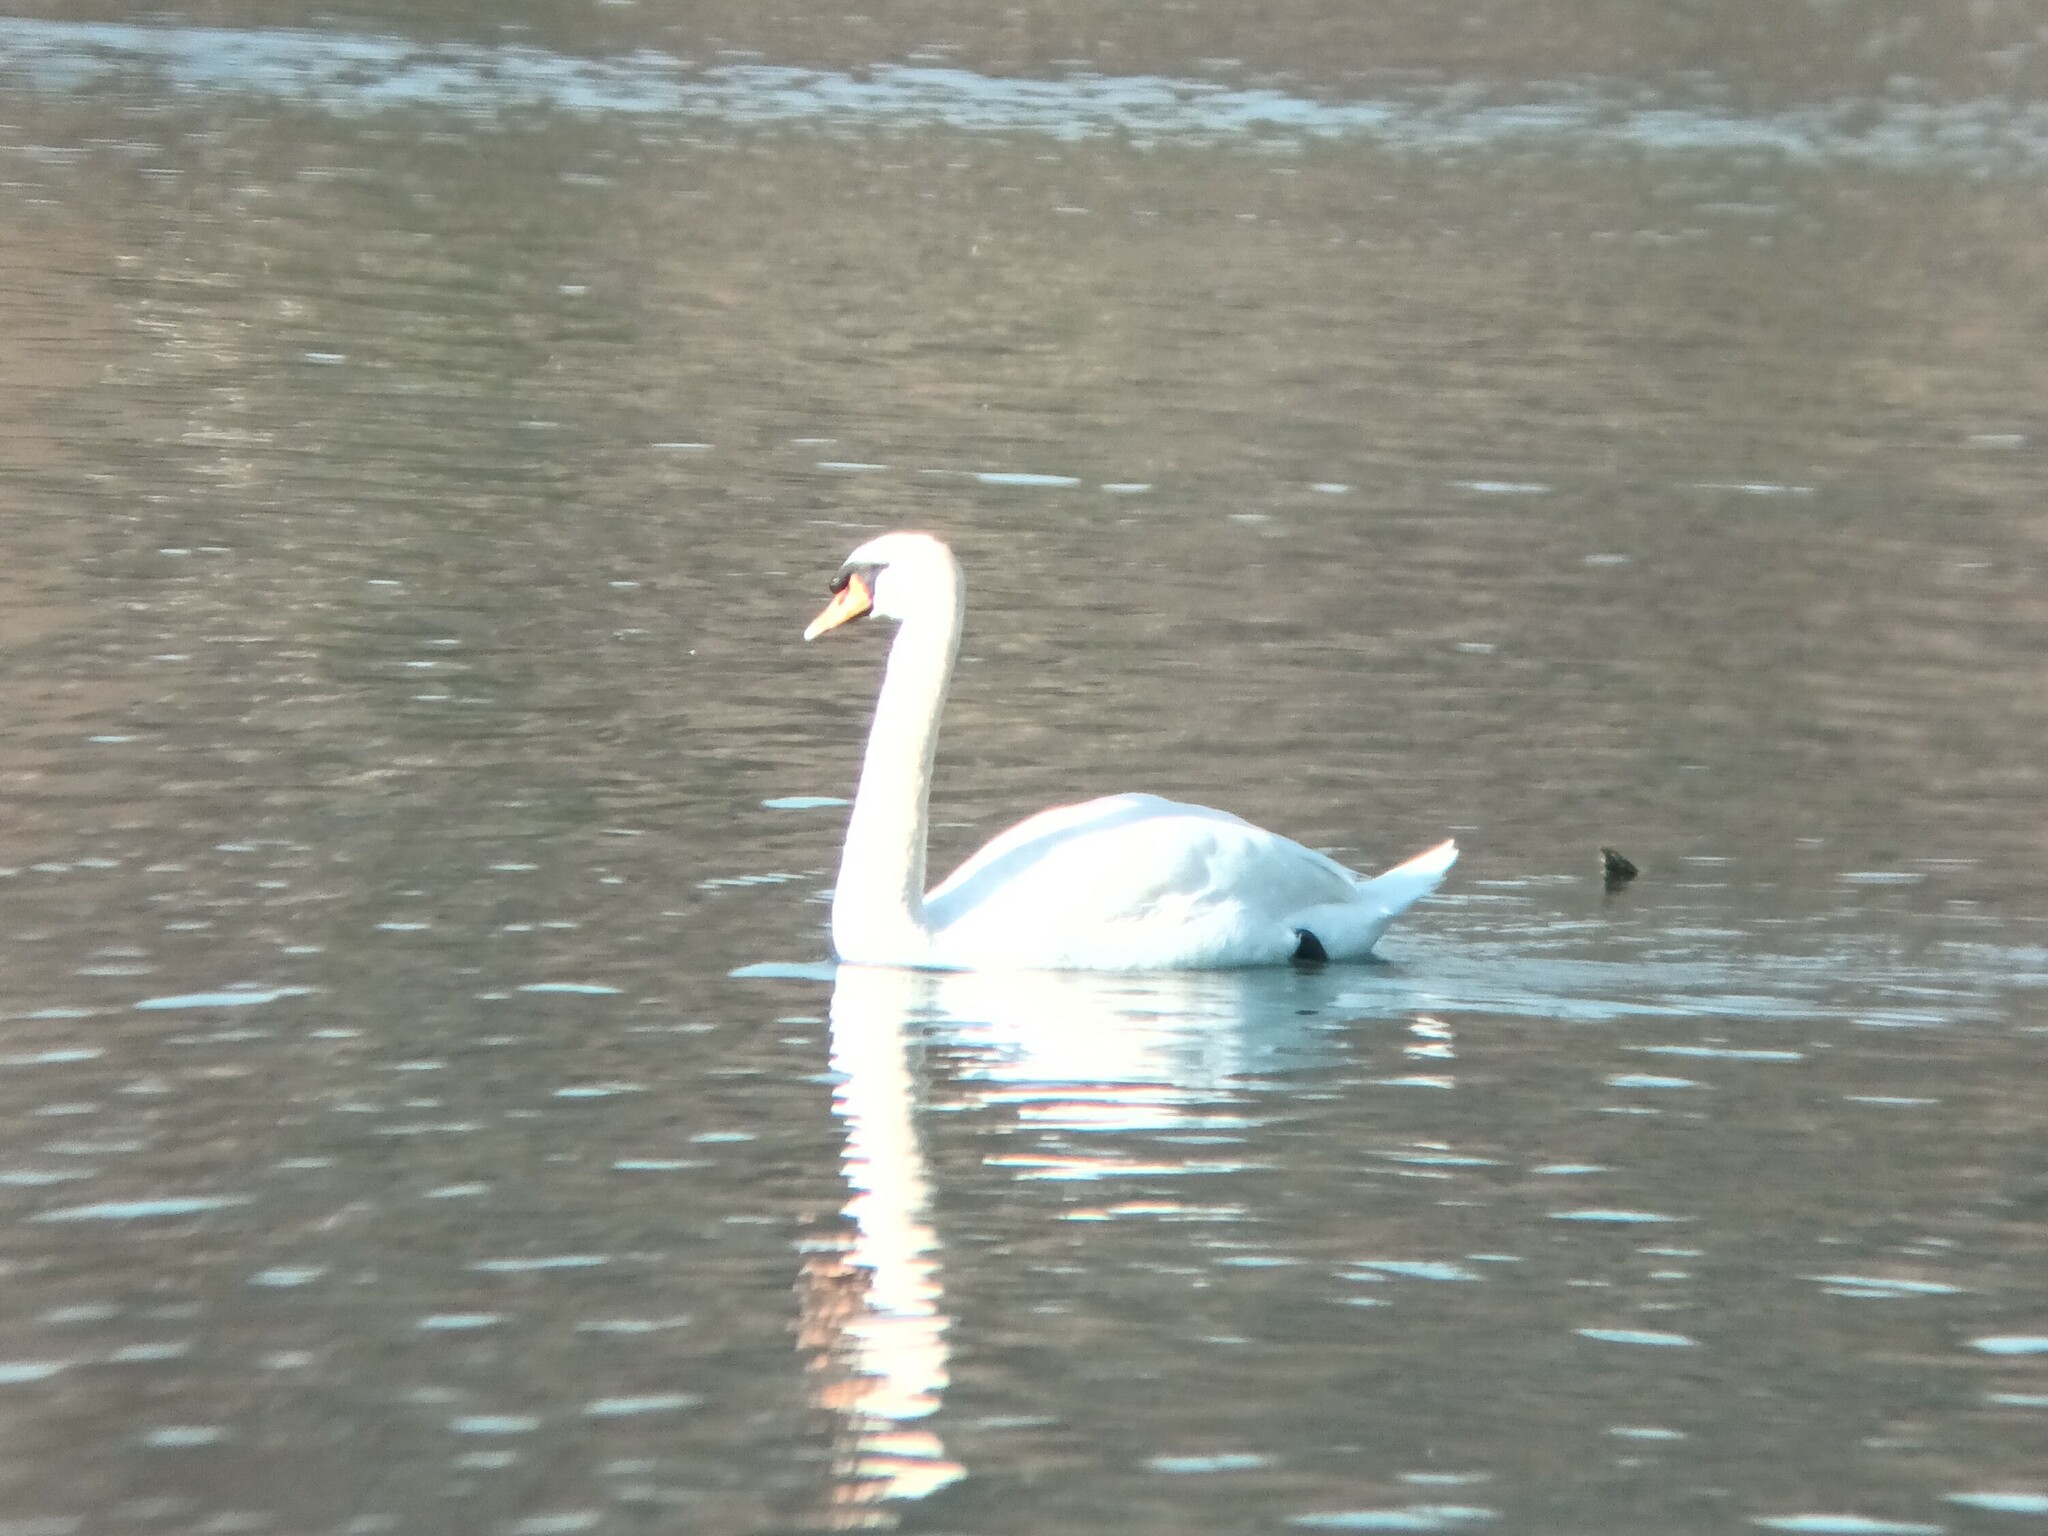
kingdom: Animalia
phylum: Chordata
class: Aves
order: Anseriformes
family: Anatidae
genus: Cygnus
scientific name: Cygnus olor
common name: Mute swan
